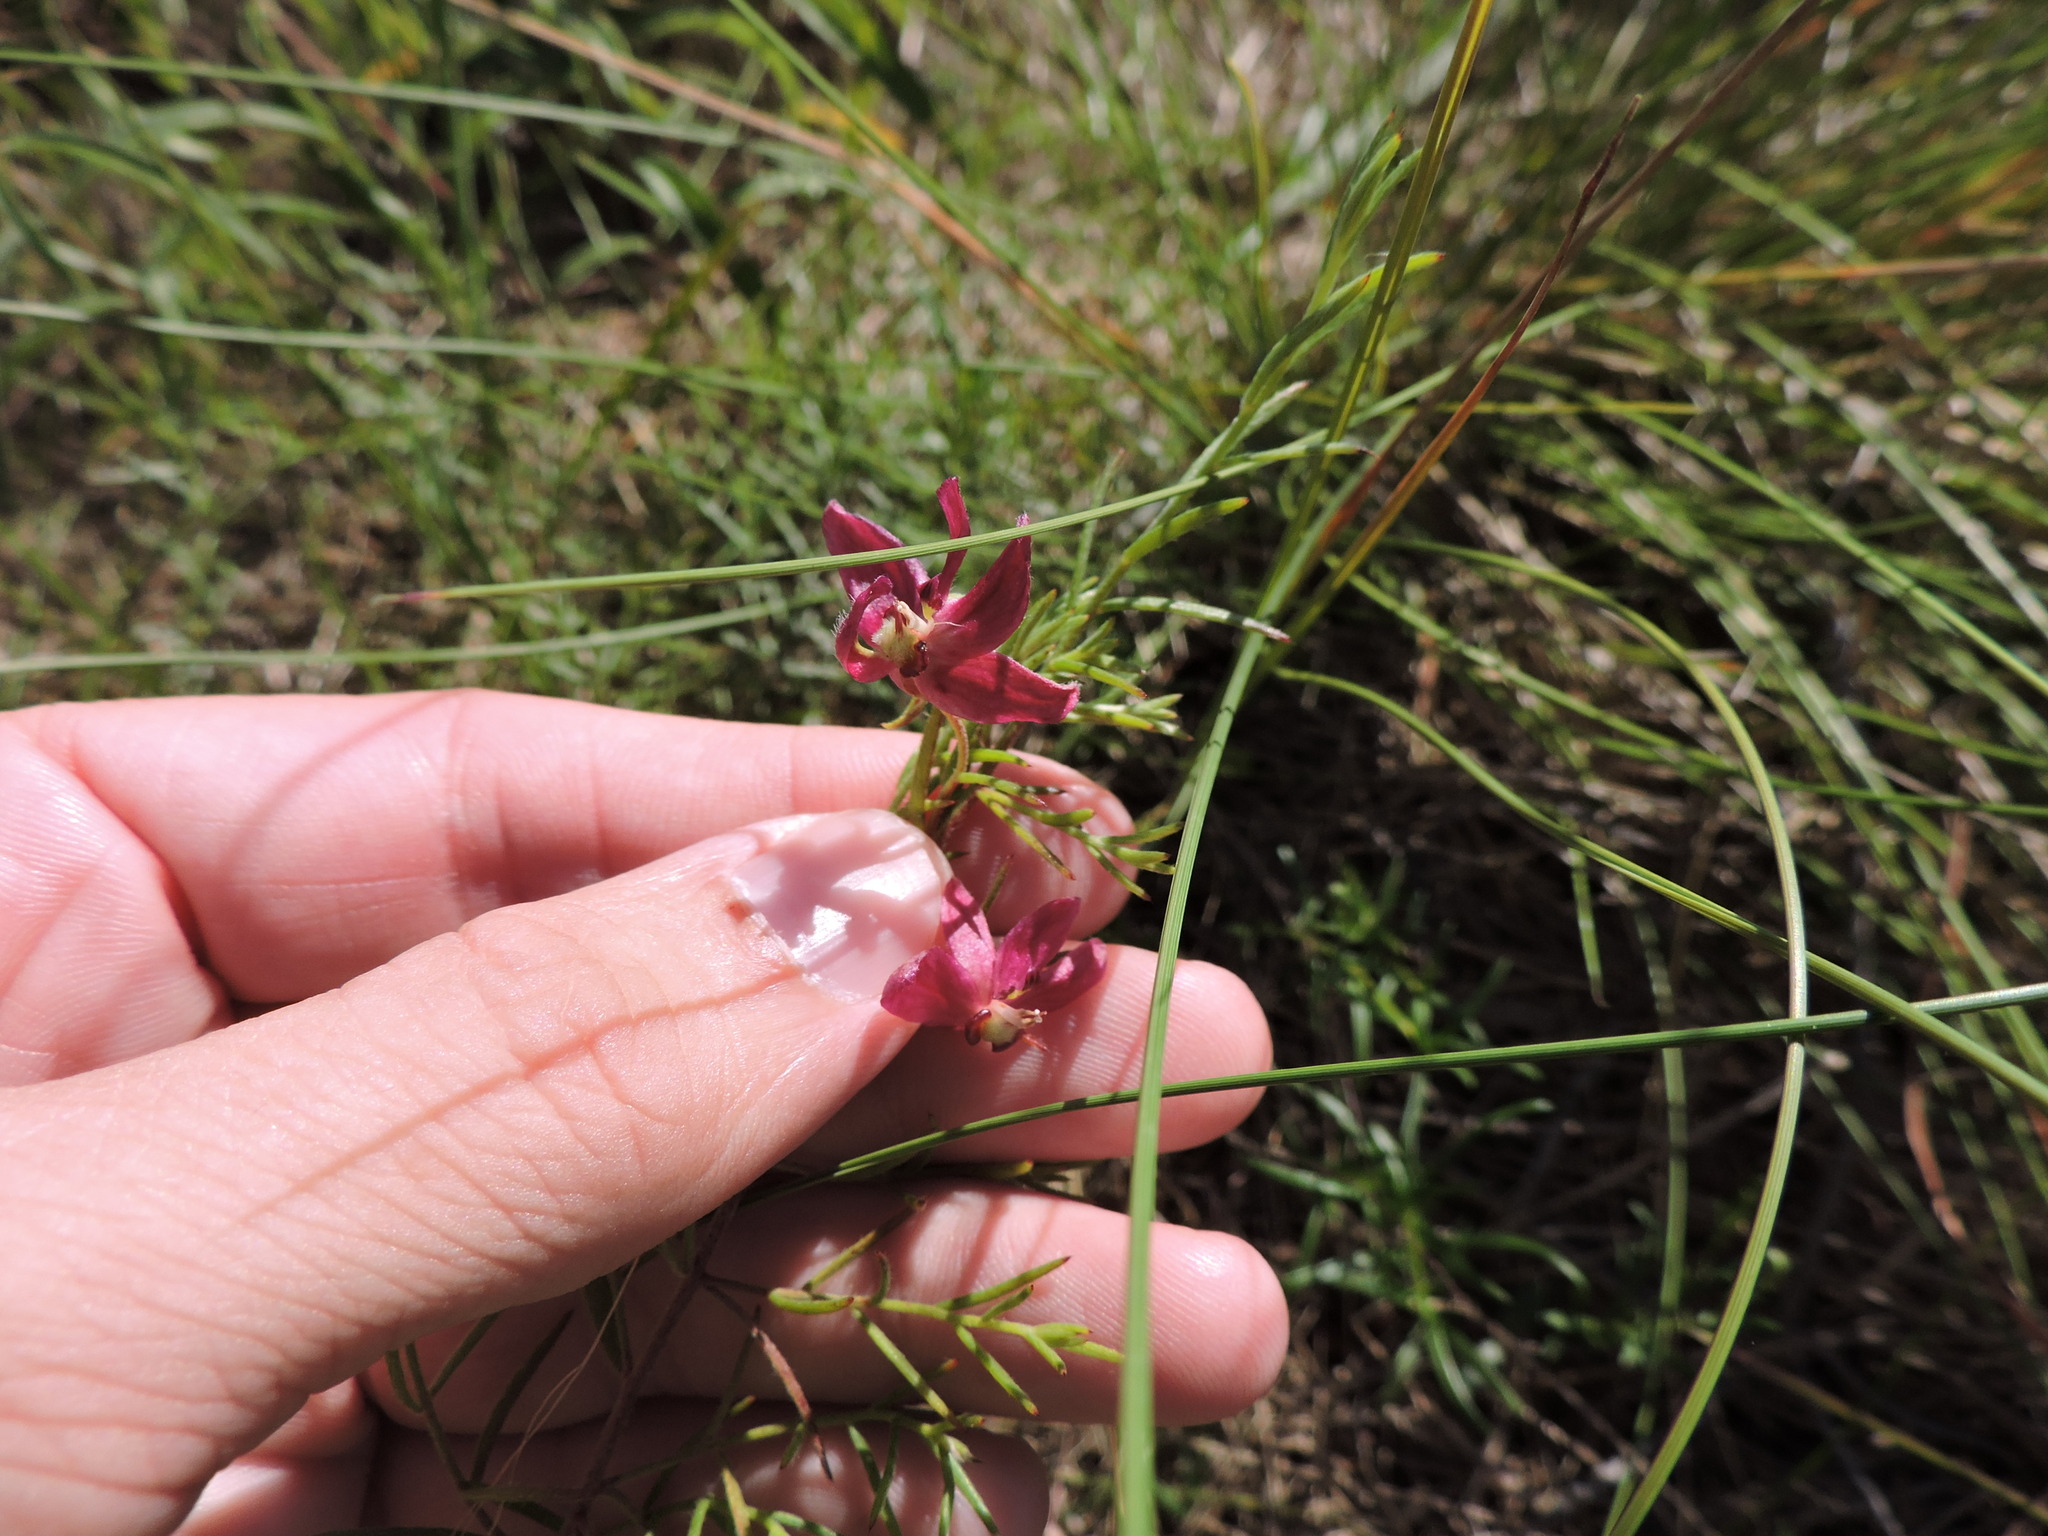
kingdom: Plantae
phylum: Tracheophyta
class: Magnoliopsida
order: Zygophyllales
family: Krameriaceae
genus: Krameria
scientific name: Krameria lanceolata
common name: Ratany
